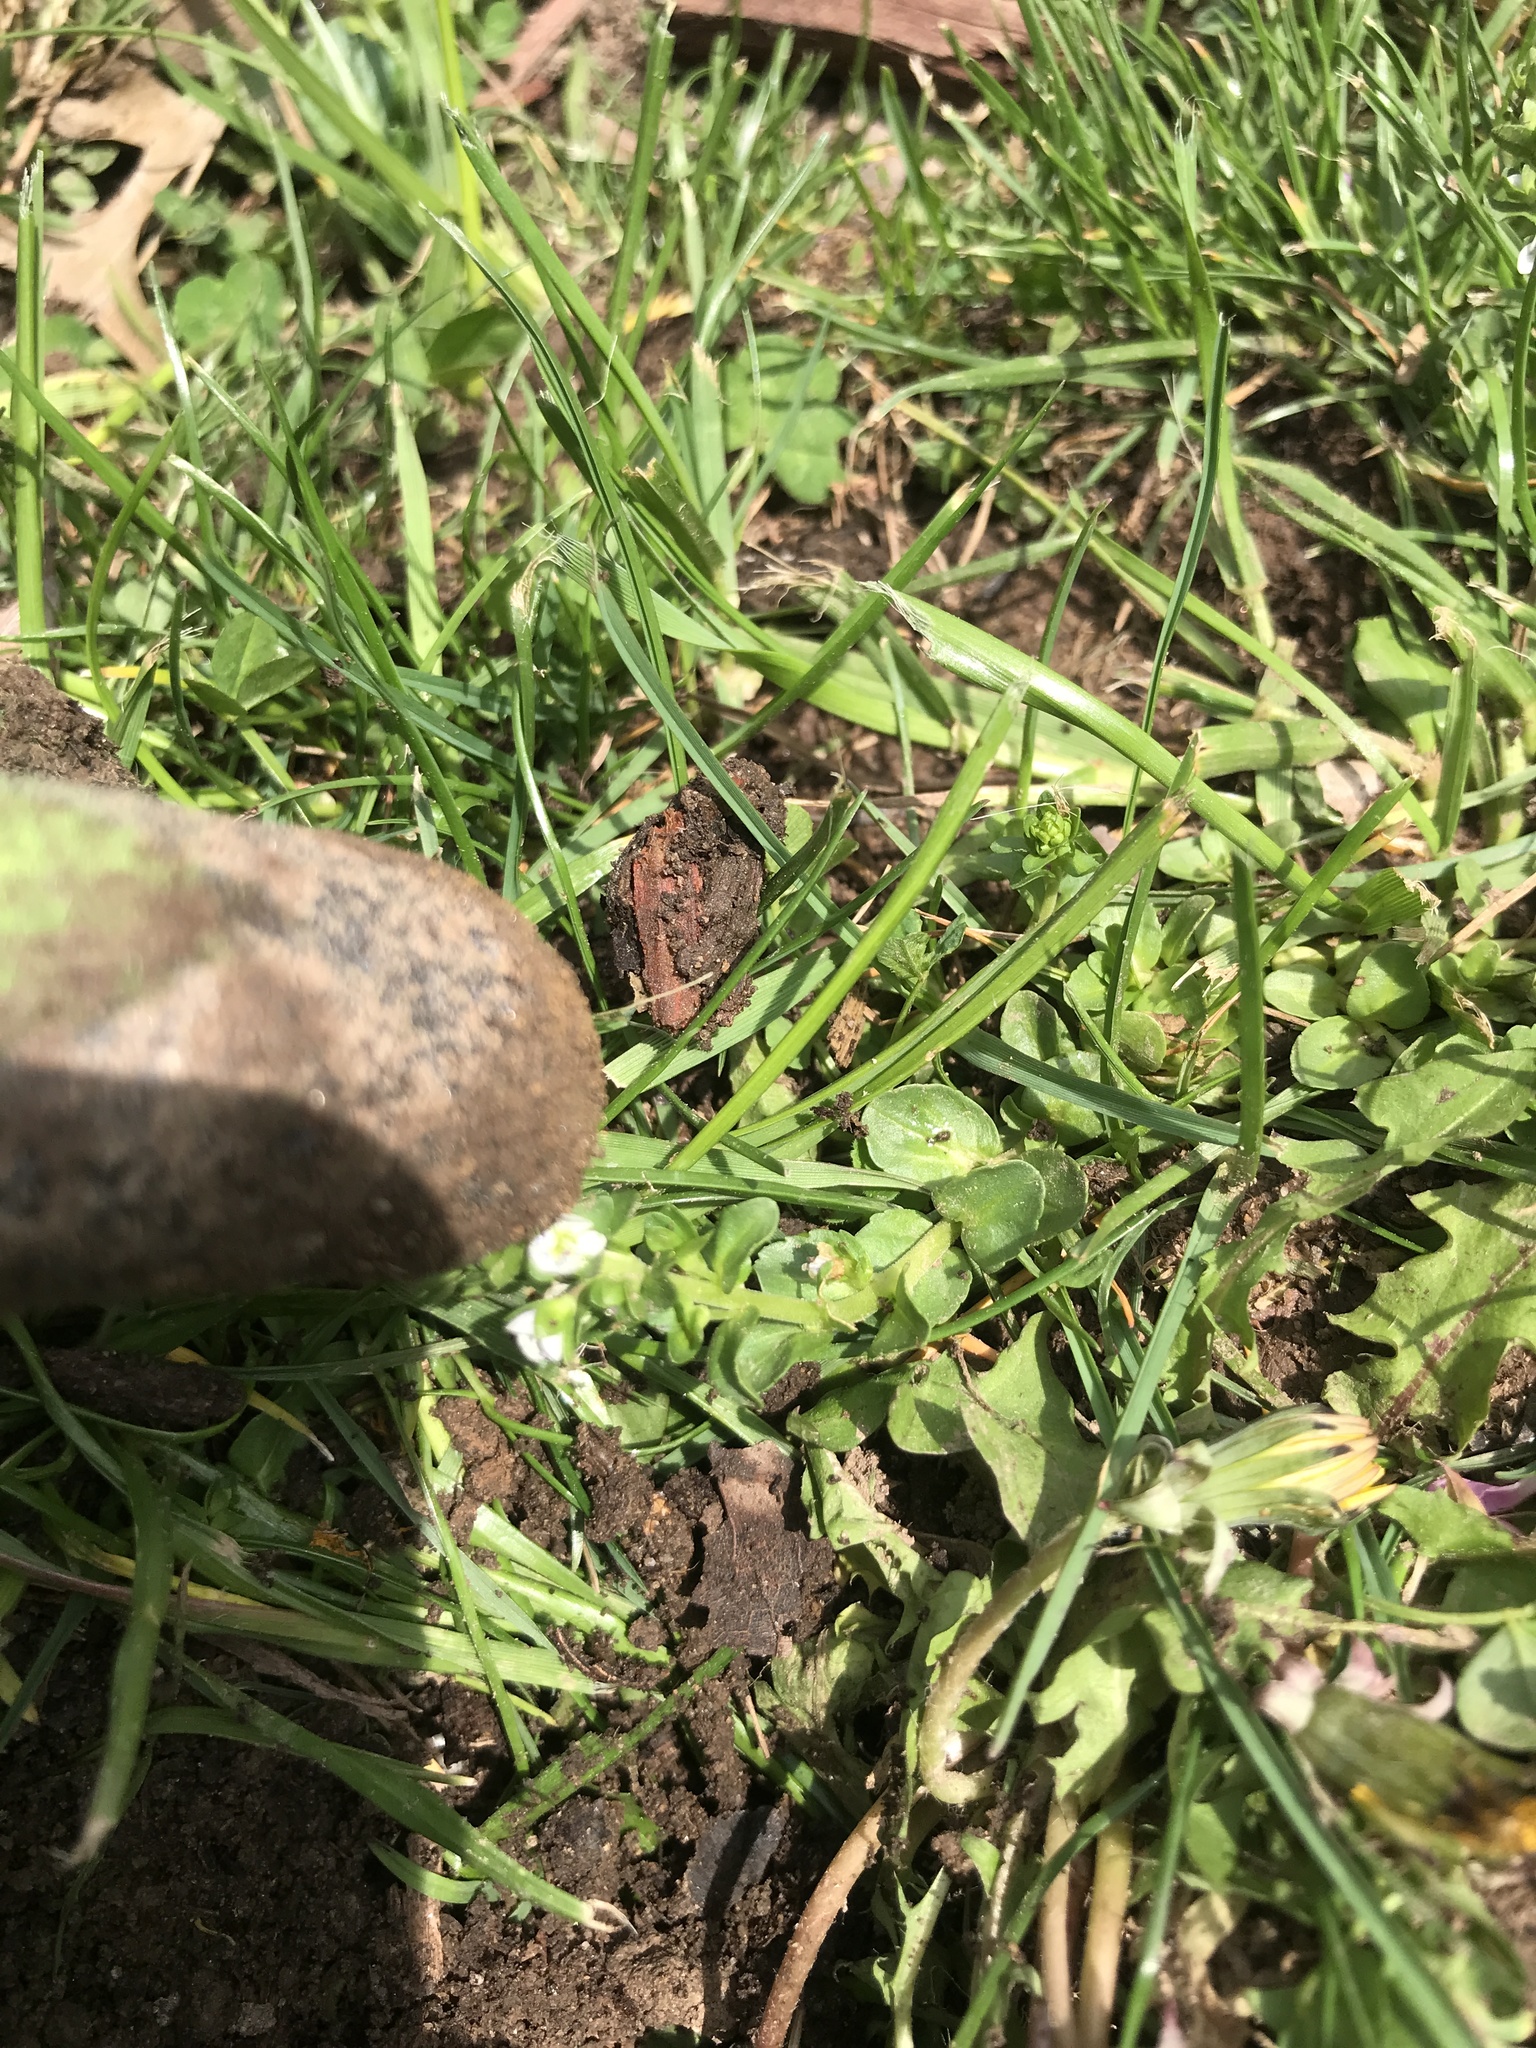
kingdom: Plantae
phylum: Tracheophyta
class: Magnoliopsida
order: Lamiales
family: Plantaginaceae
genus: Veronica
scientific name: Veronica serpyllifolia
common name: Thyme-leaved speedwell
